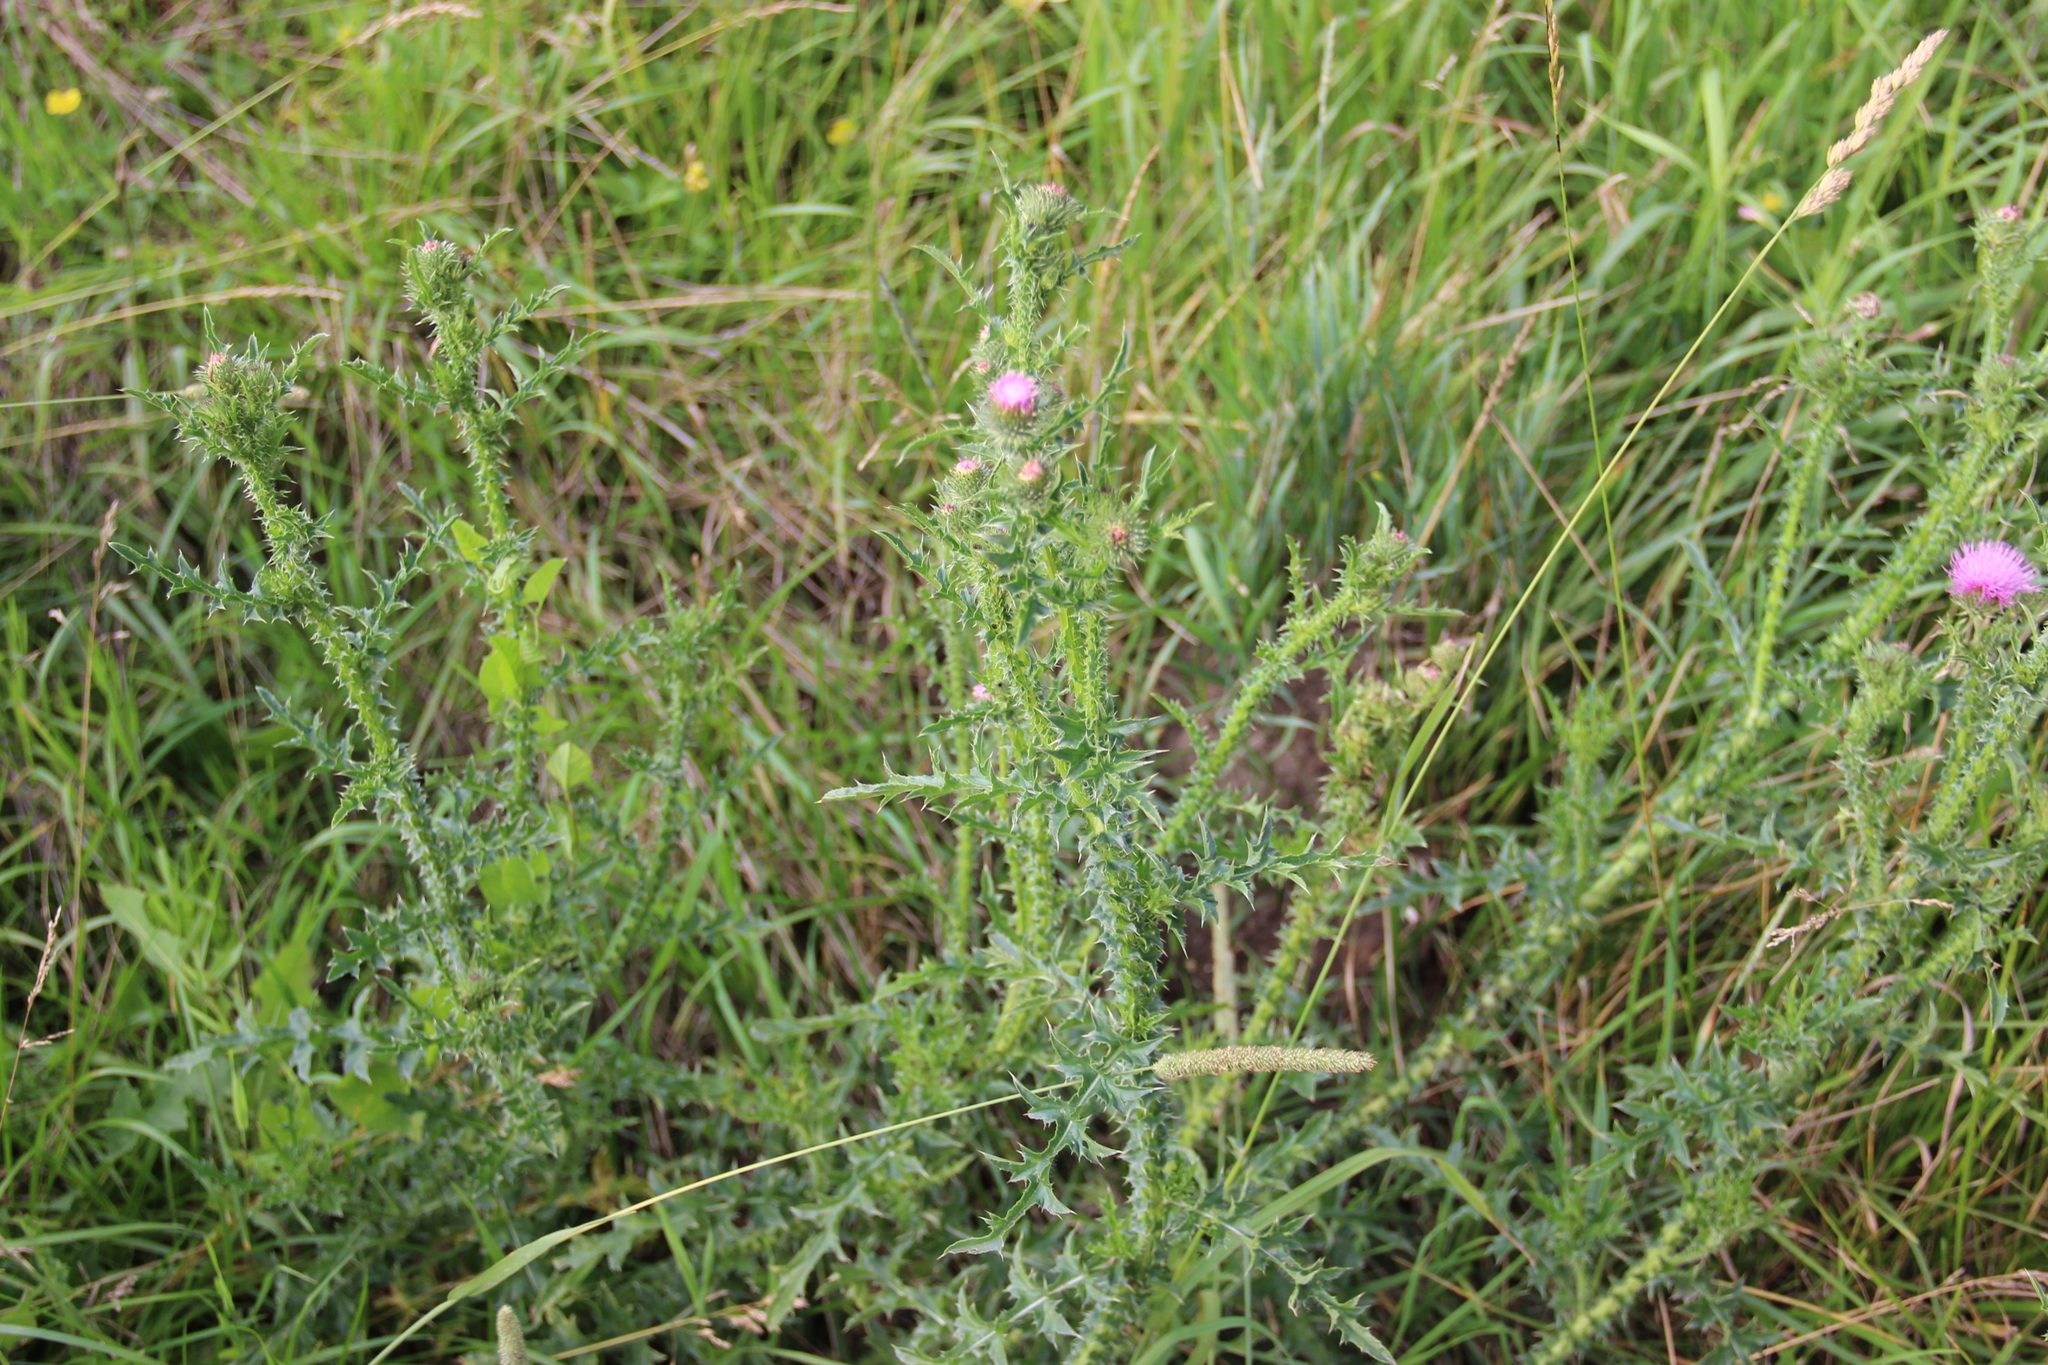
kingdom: Plantae
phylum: Tracheophyta
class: Magnoliopsida
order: Asterales
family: Asteraceae
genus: Carduus
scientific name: Carduus acanthoides
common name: Plumeless thistle
